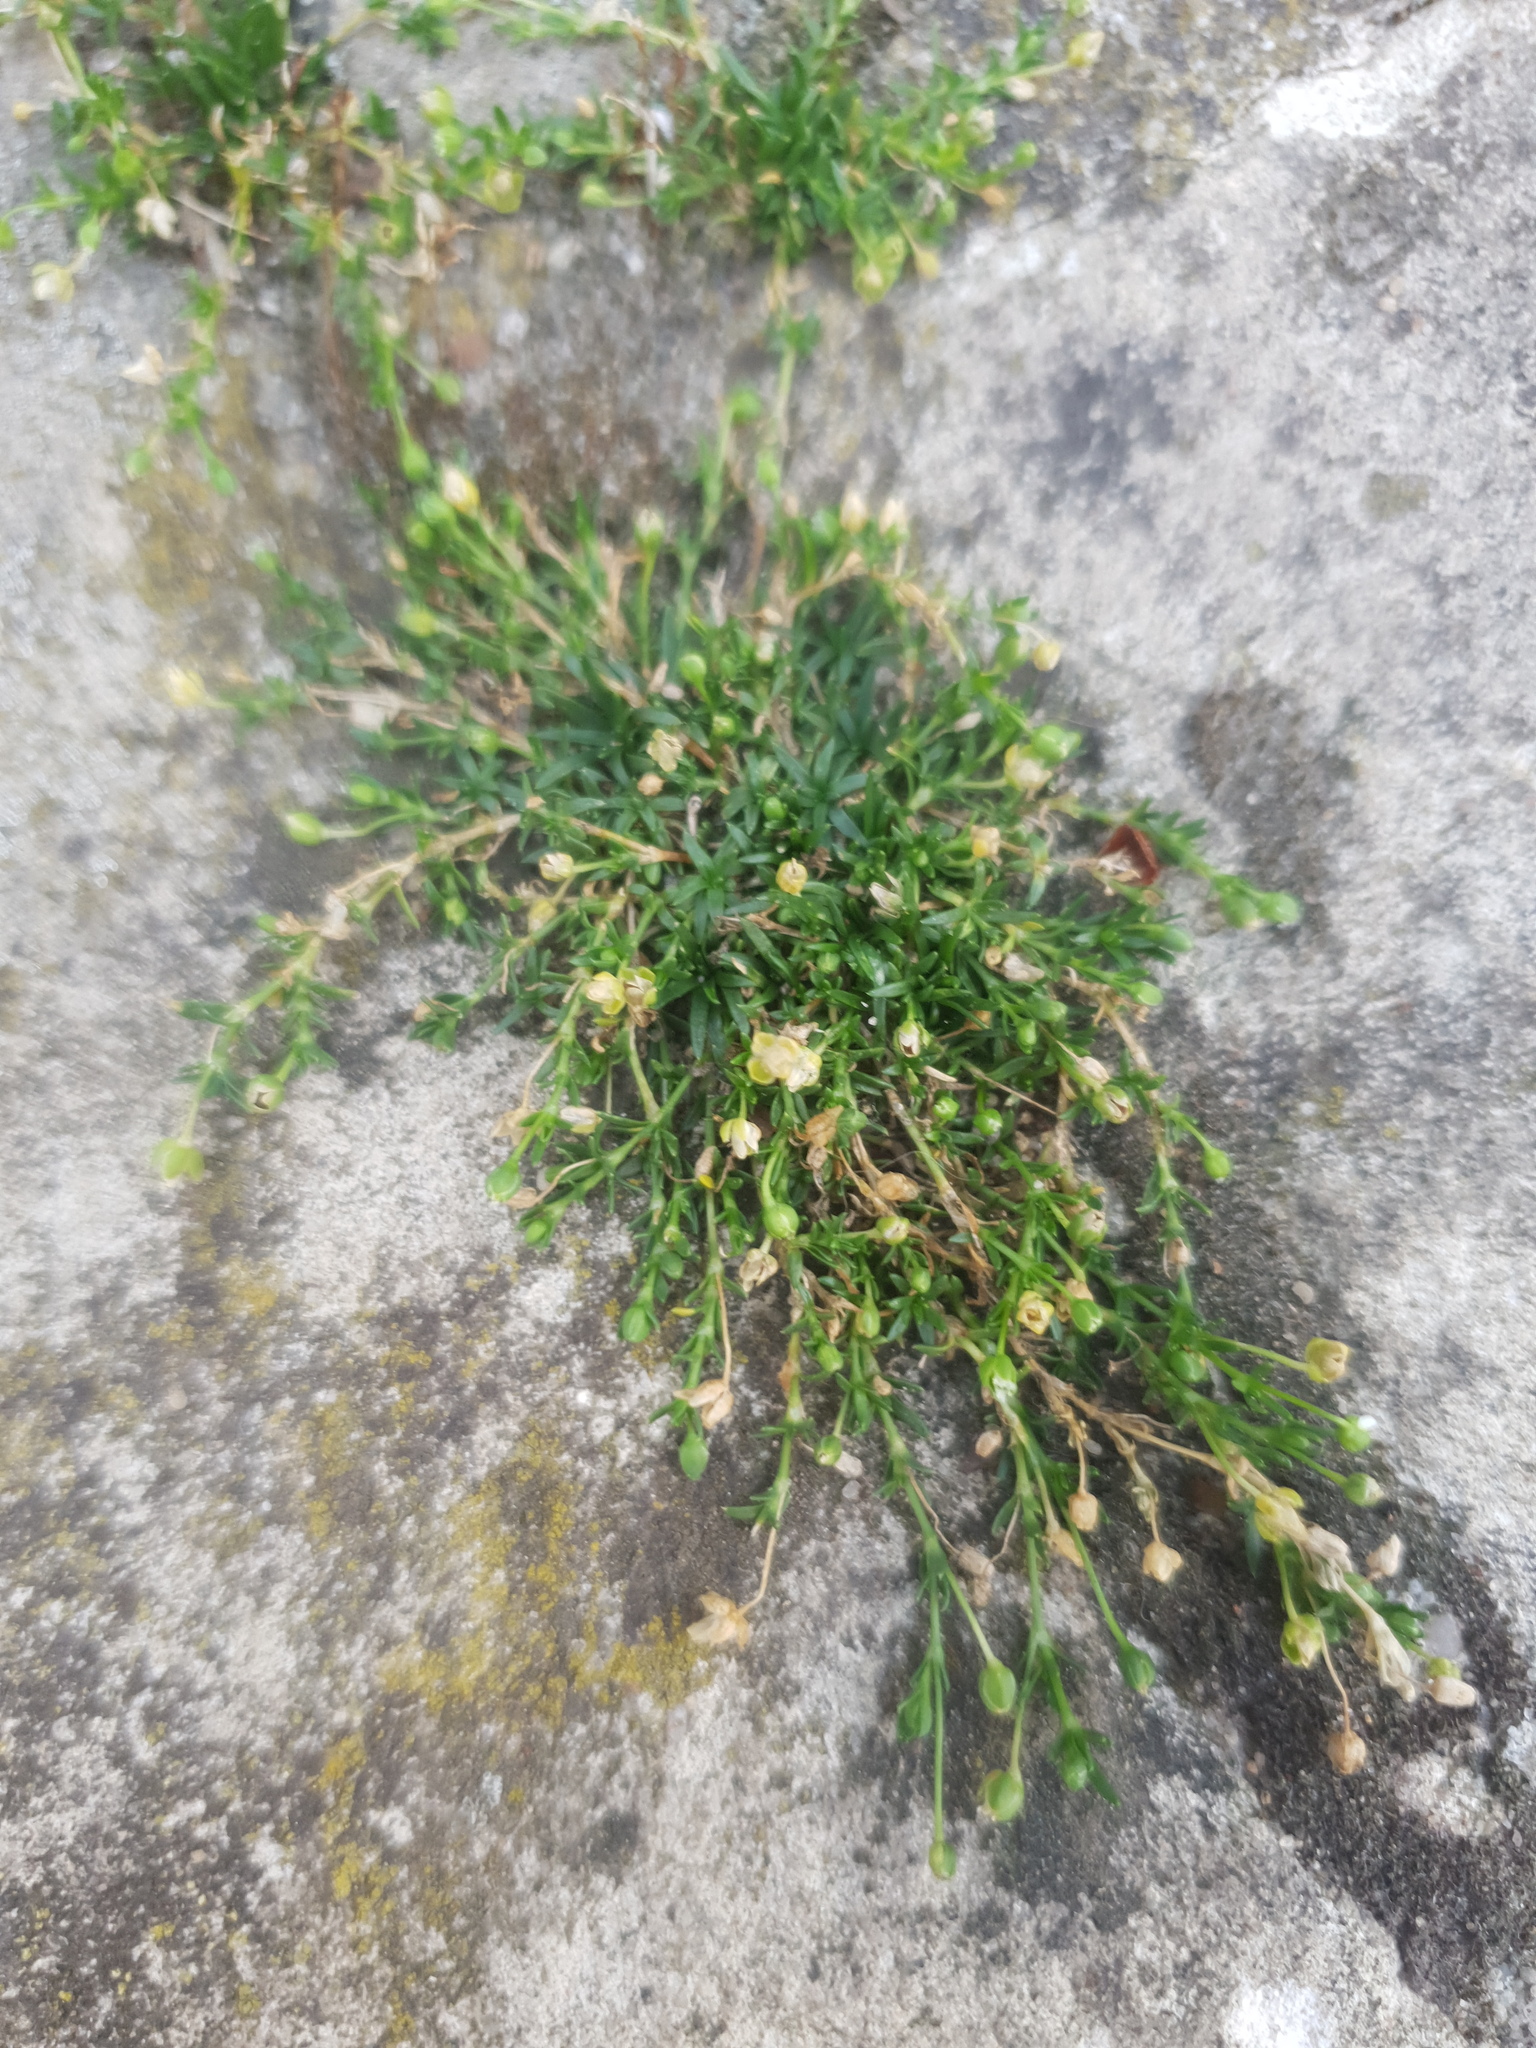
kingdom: Plantae
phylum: Tracheophyta
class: Magnoliopsida
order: Caryophyllales
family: Caryophyllaceae
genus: Sagina
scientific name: Sagina procumbens
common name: Procumbent pearlwort
